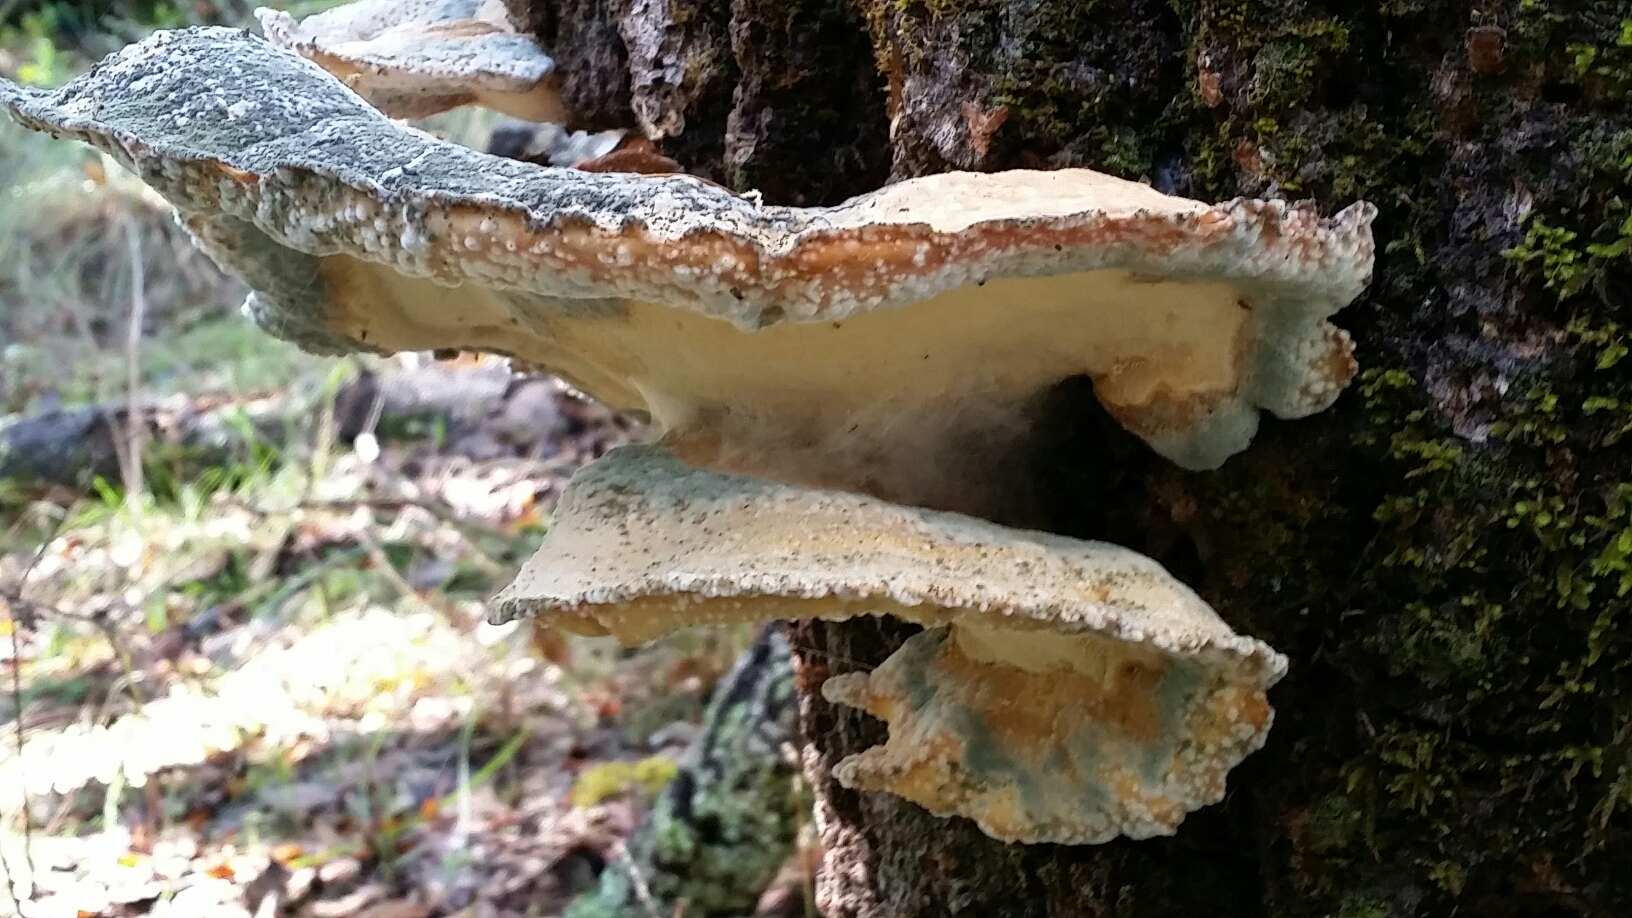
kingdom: Fungi
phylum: Basidiomycota
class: Agaricomycetes
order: Polyporales
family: Laetiporaceae
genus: Laetiporus
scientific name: Laetiporus gilbertsonii
